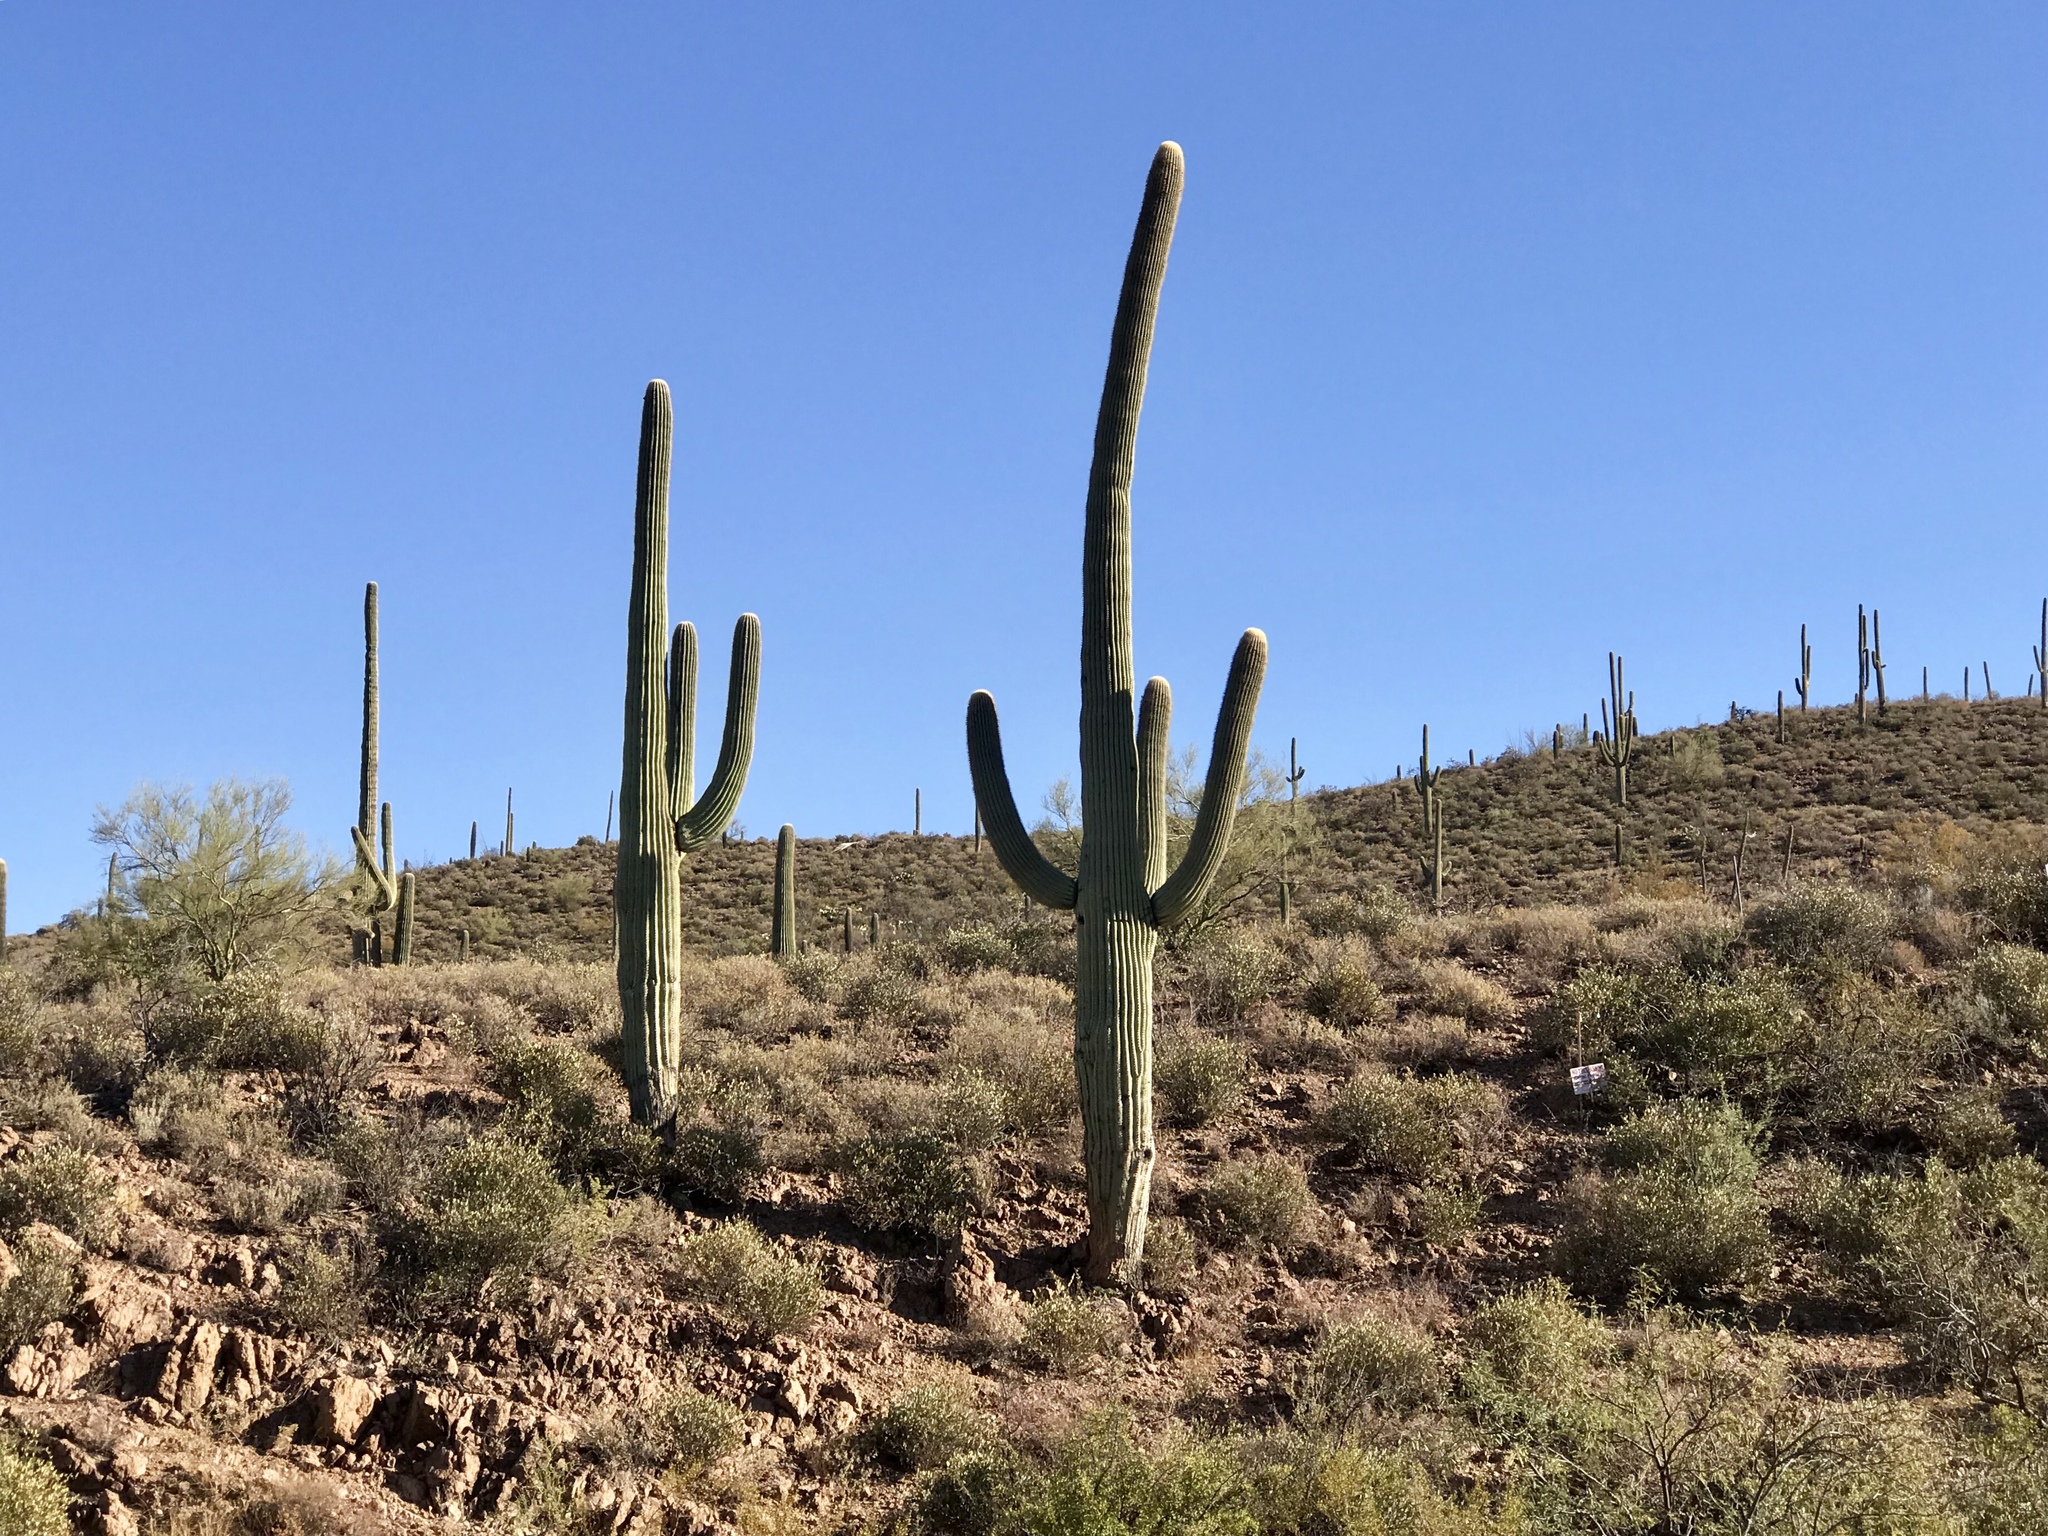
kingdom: Plantae
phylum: Tracheophyta
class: Magnoliopsida
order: Caryophyllales
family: Cactaceae
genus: Carnegiea
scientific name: Carnegiea gigantea
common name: Saguaro
